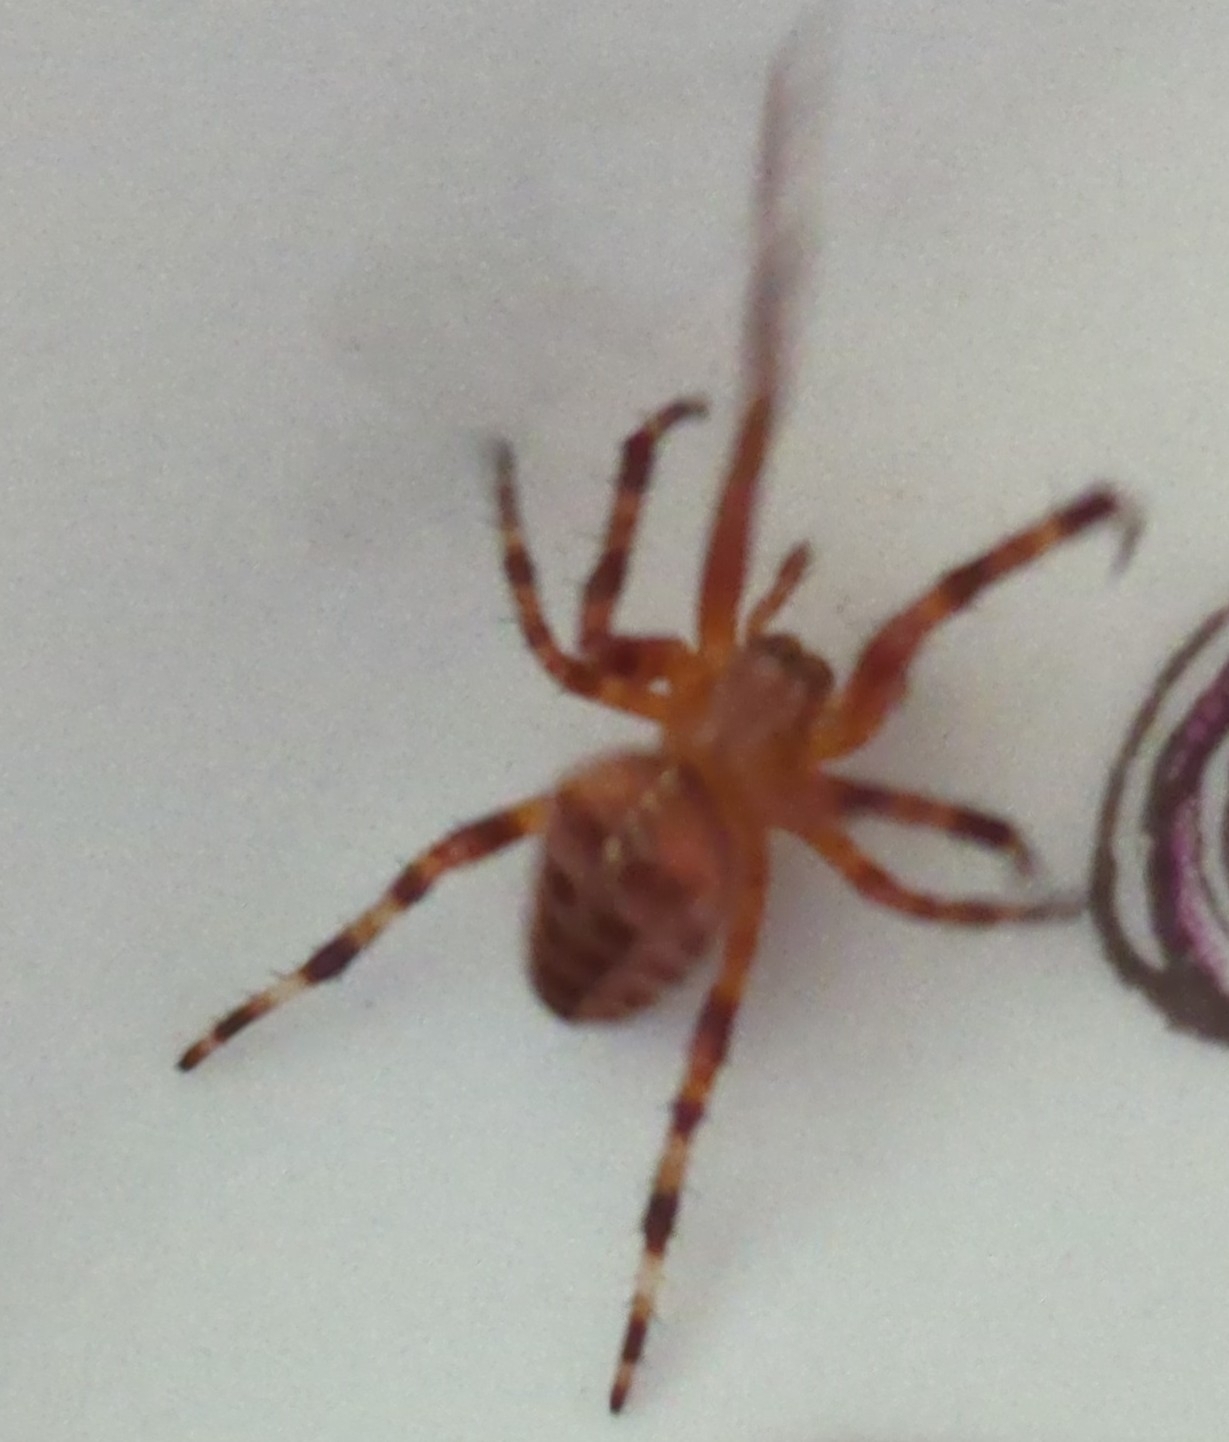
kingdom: Animalia
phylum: Arthropoda
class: Arachnida
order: Araneae
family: Araneidae
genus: Araneus
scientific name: Araneus diadematus
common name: Cross orbweaver
